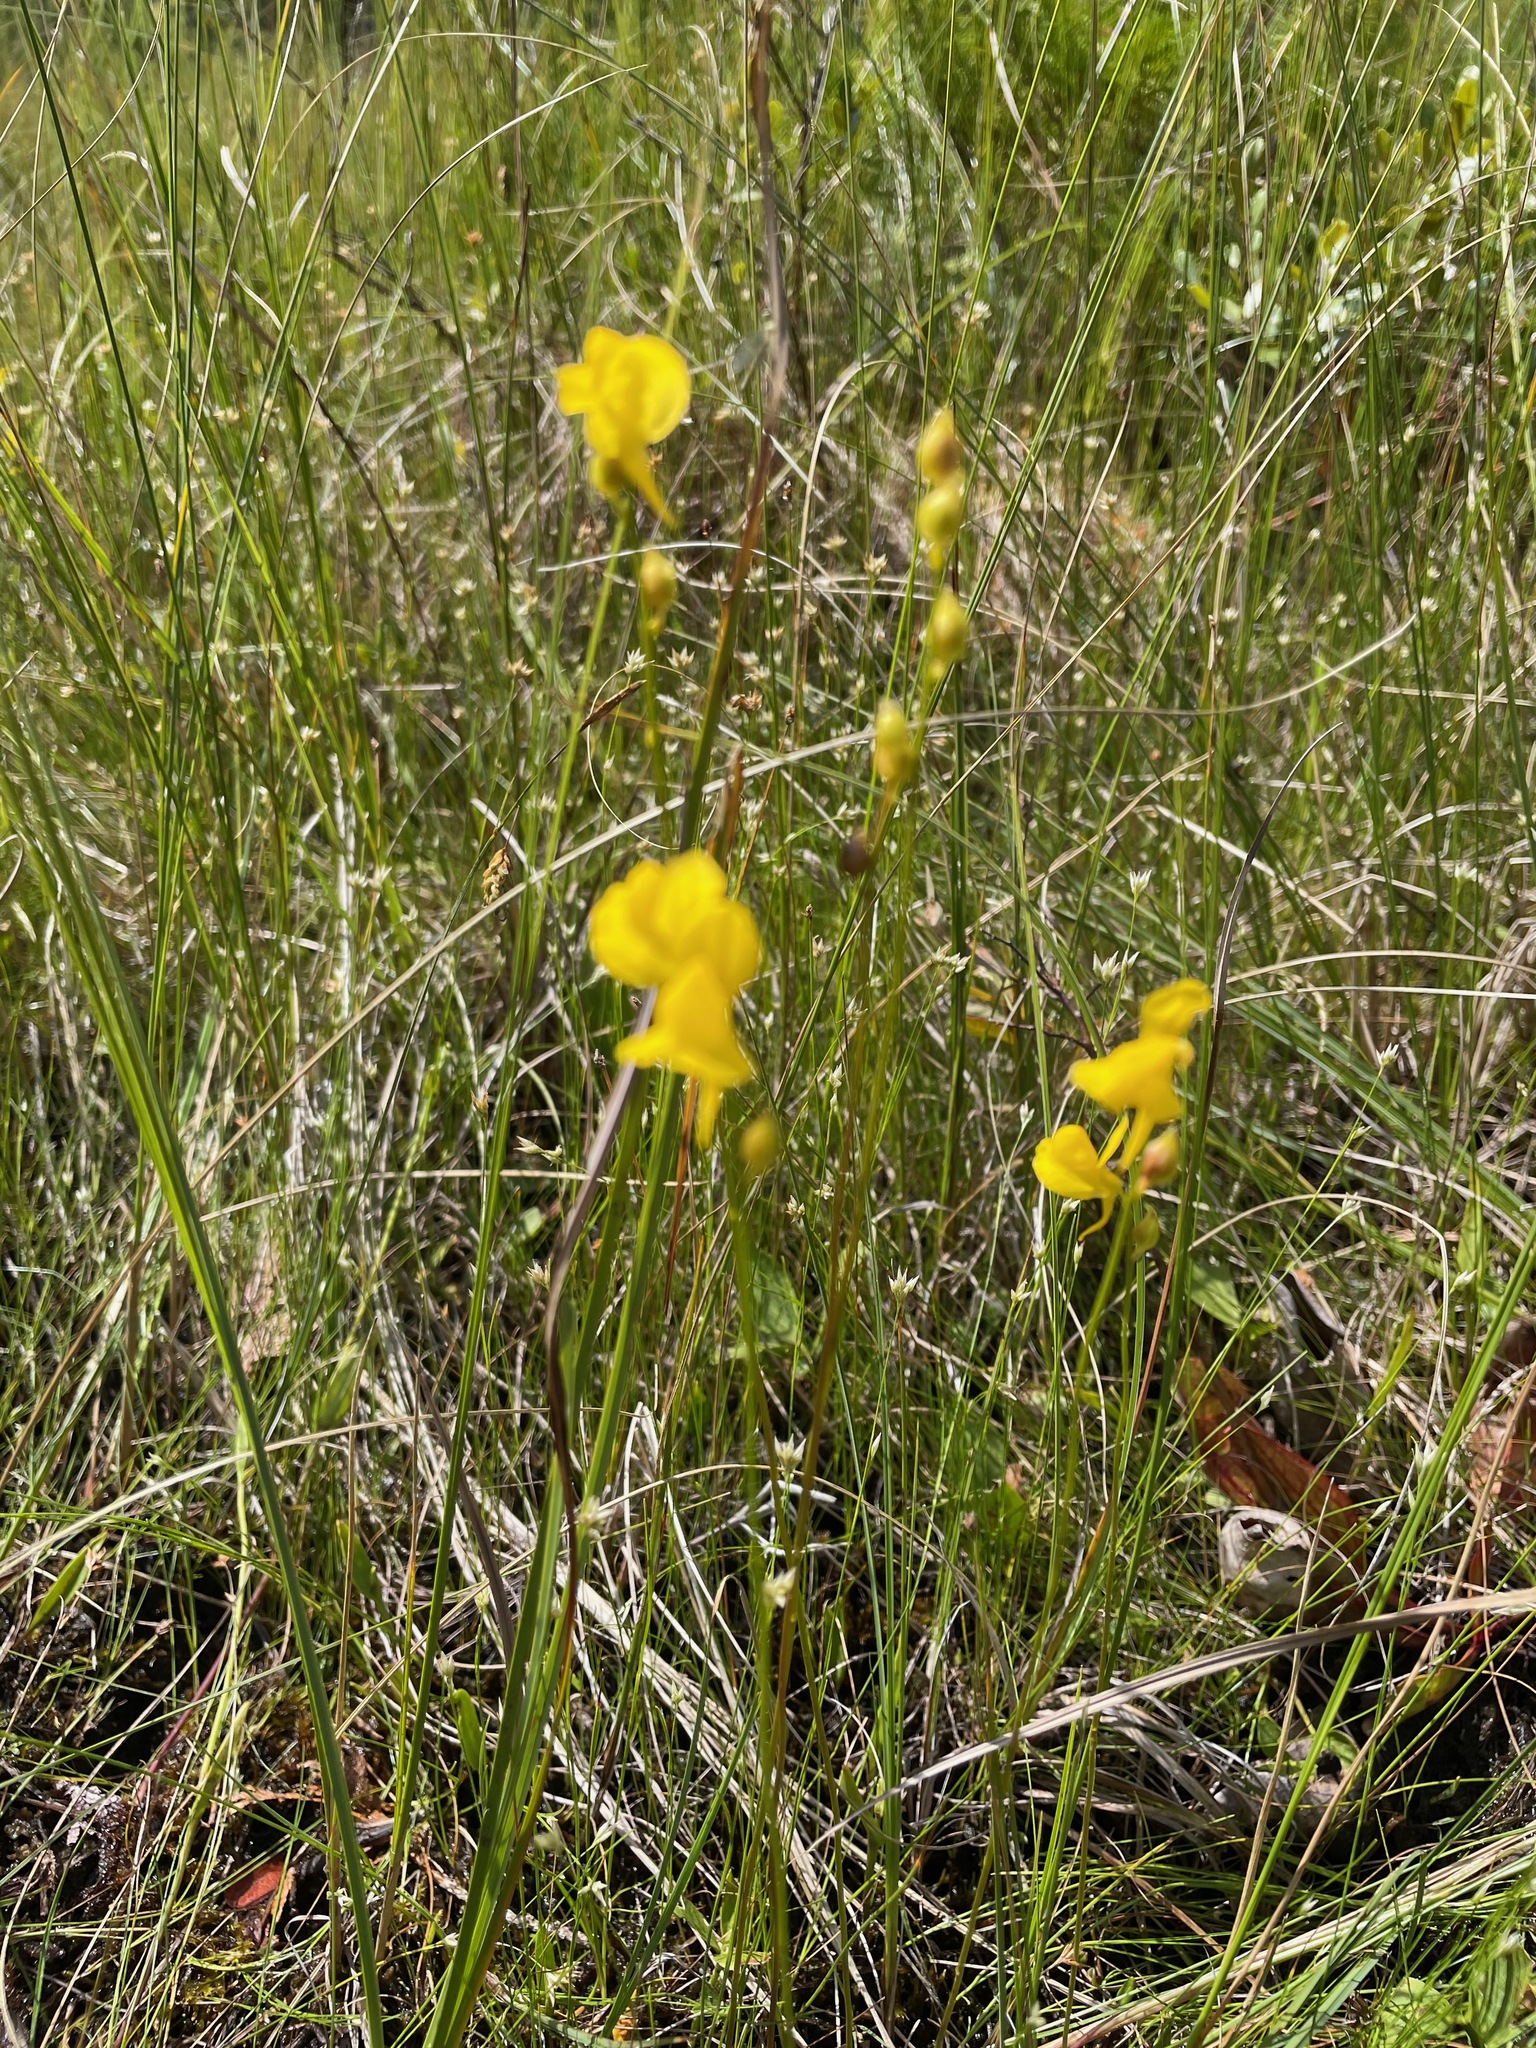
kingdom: Plantae
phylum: Tracheophyta
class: Magnoliopsida
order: Lamiales
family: Lentibulariaceae
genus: Utricularia
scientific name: Utricularia cornuta
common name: Horned bladderwort
